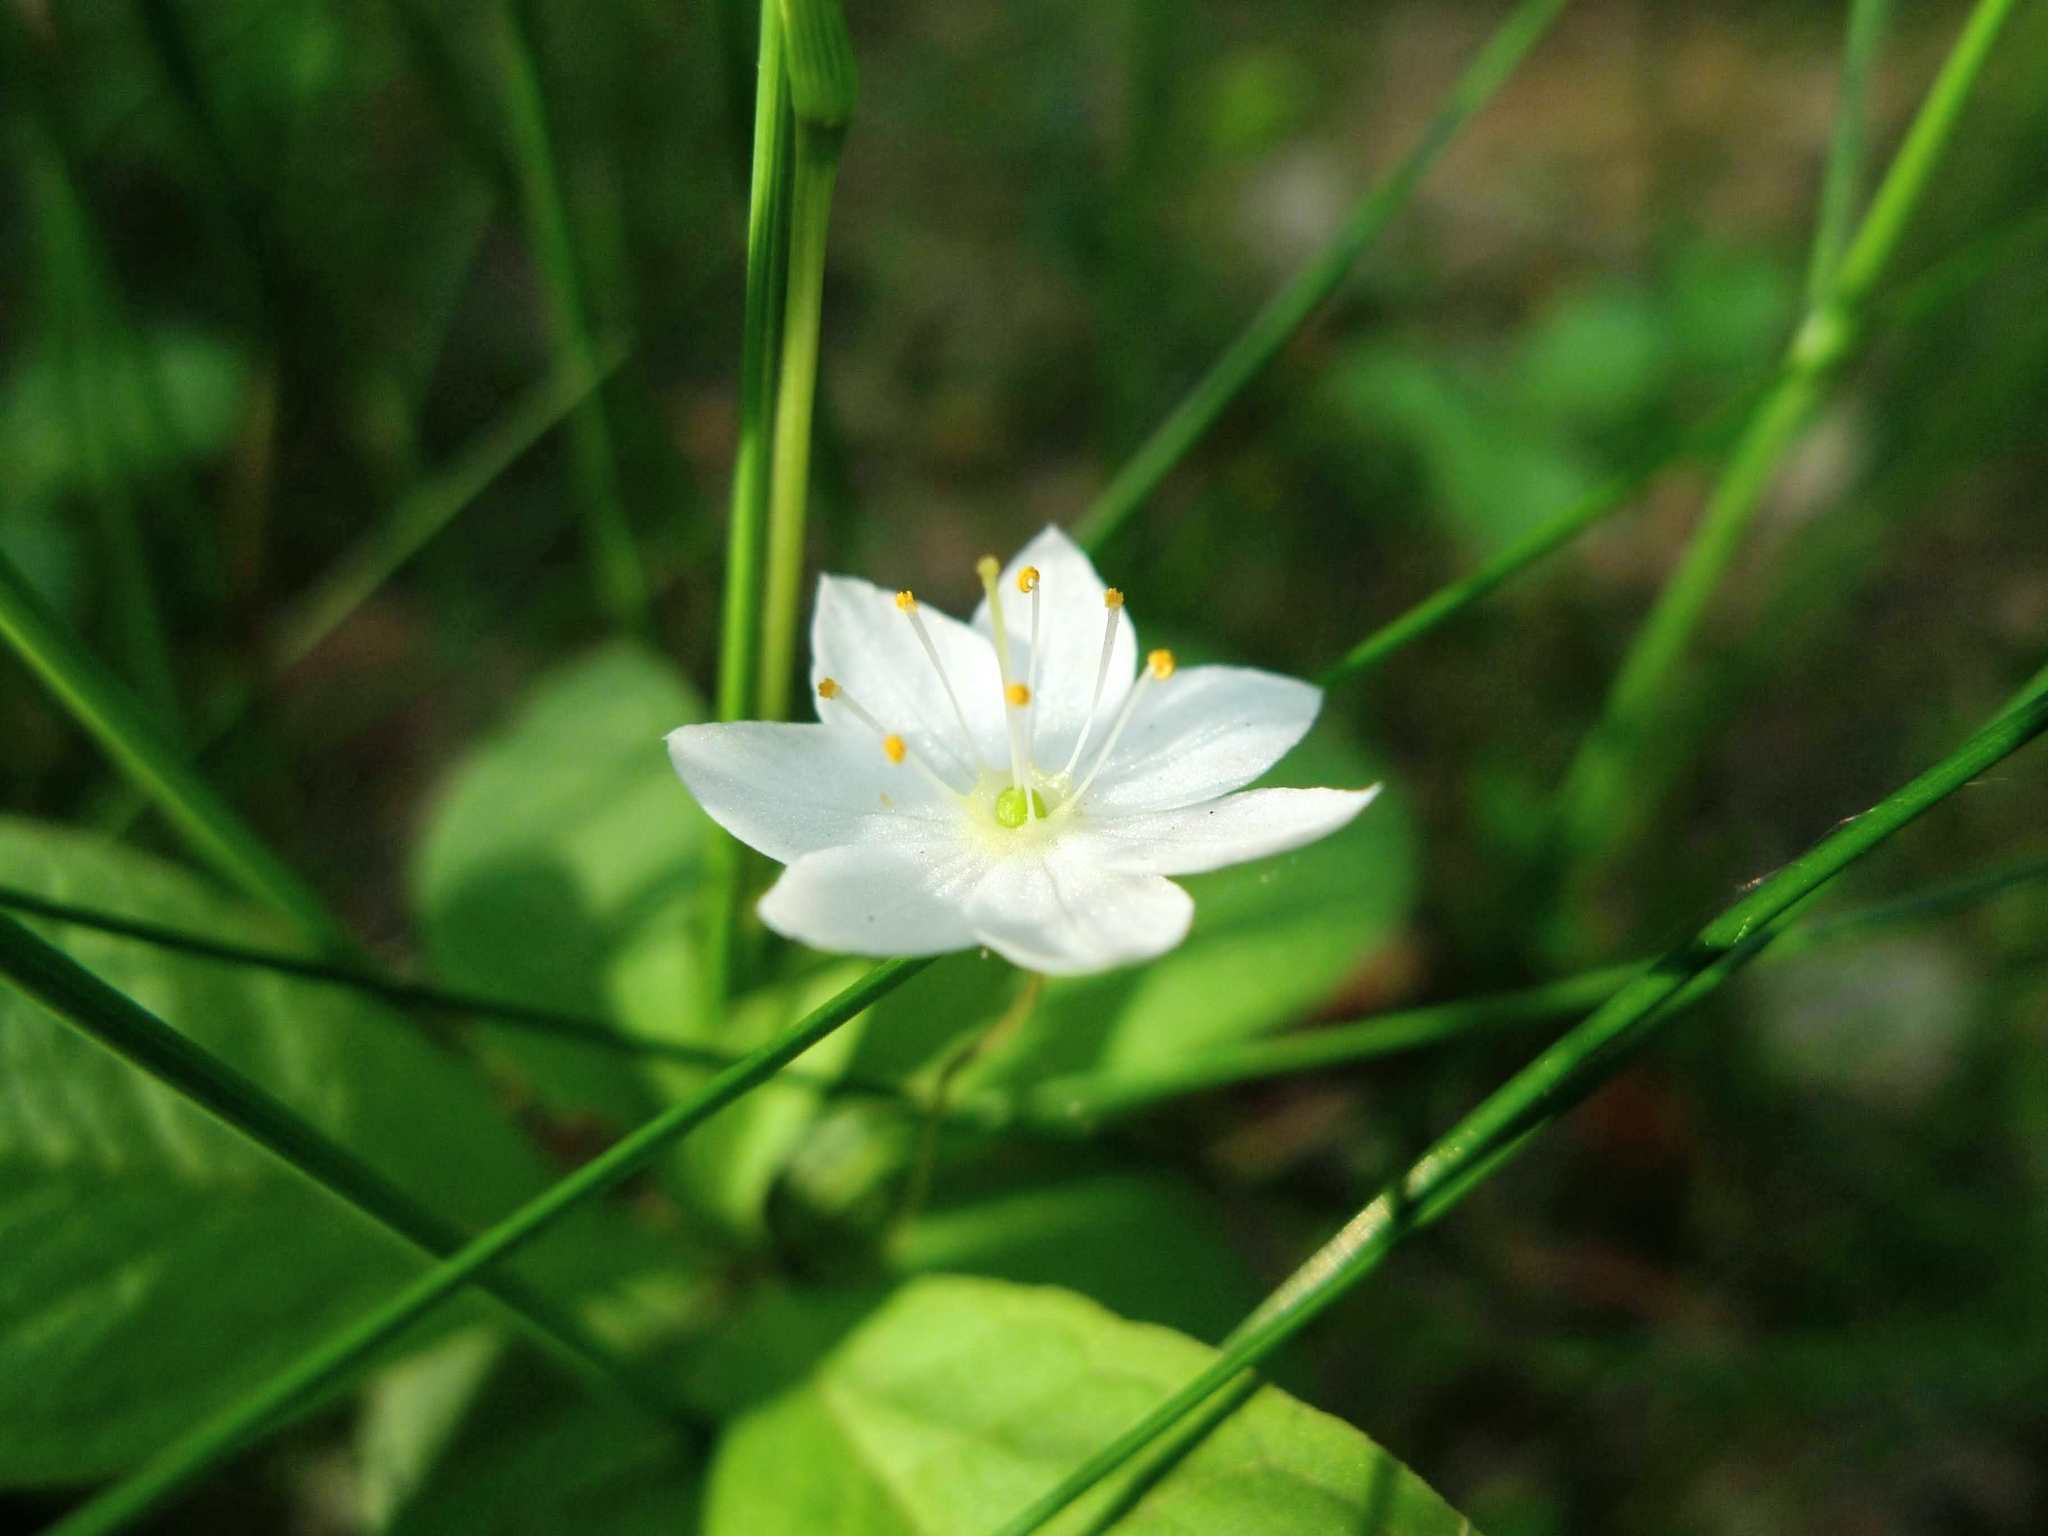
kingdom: Plantae
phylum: Tracheophyta
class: Magnoliopsida
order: Ericales
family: Primulaceae
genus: Lysimachia
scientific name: Lysimachia europaea
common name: Arctic starflower
